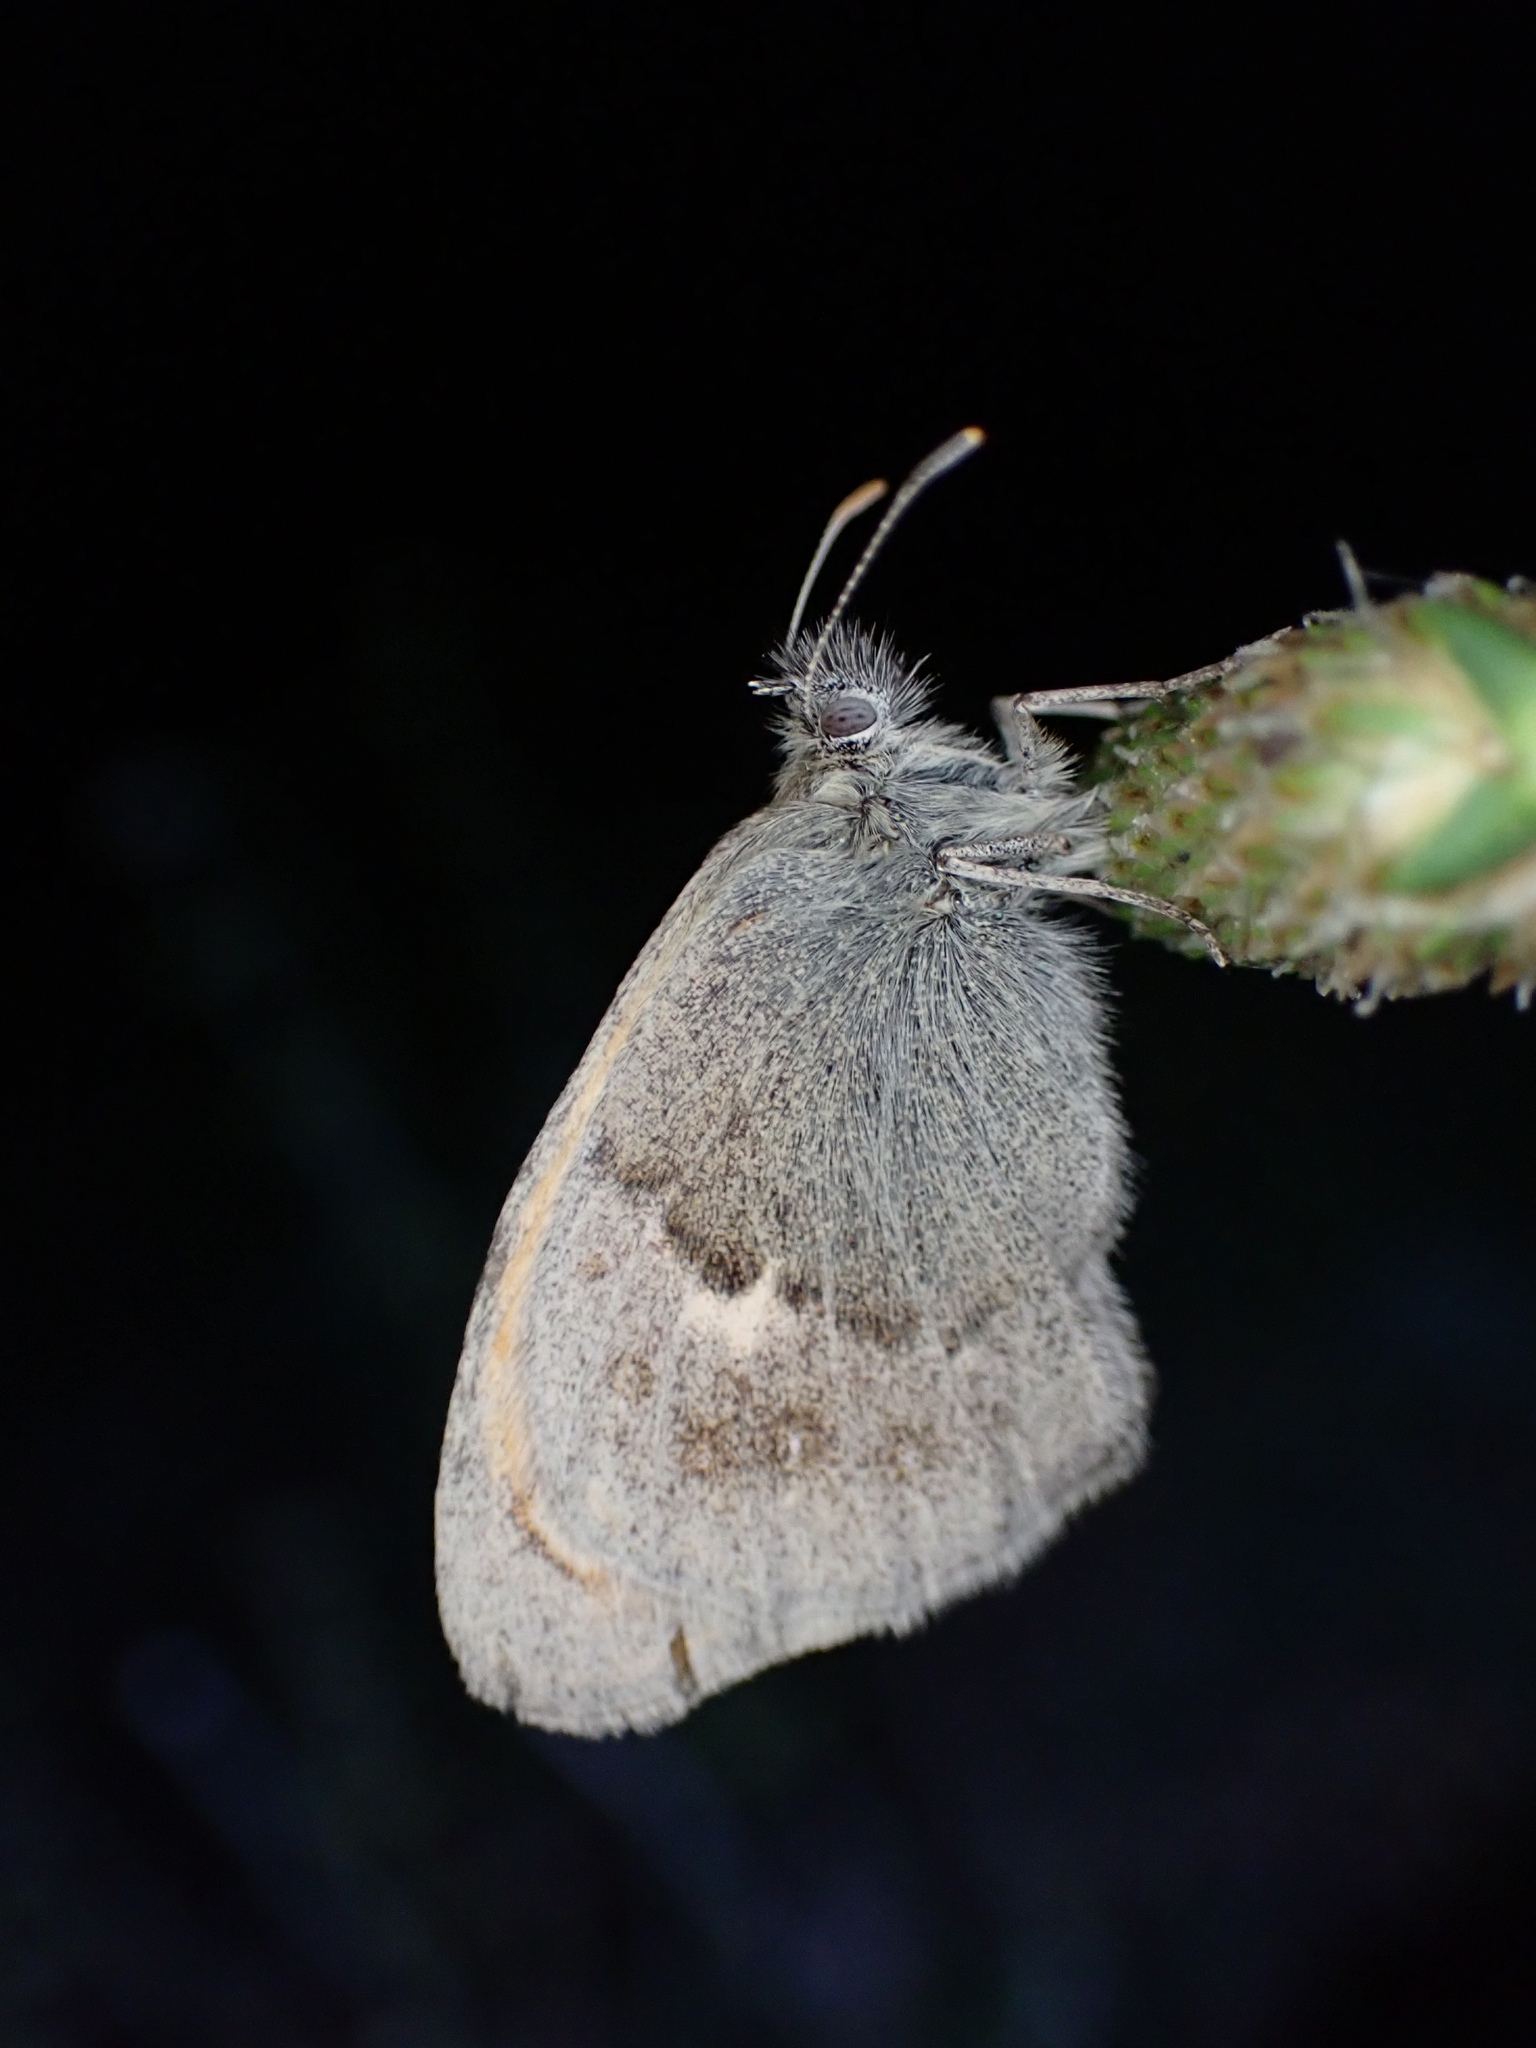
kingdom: Animalia
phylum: Arthropoda
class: Insecta
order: Lepidoptera
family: Nymphalidae
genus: Coenonympha
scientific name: Coenonympha pamphilus
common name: Small heath
